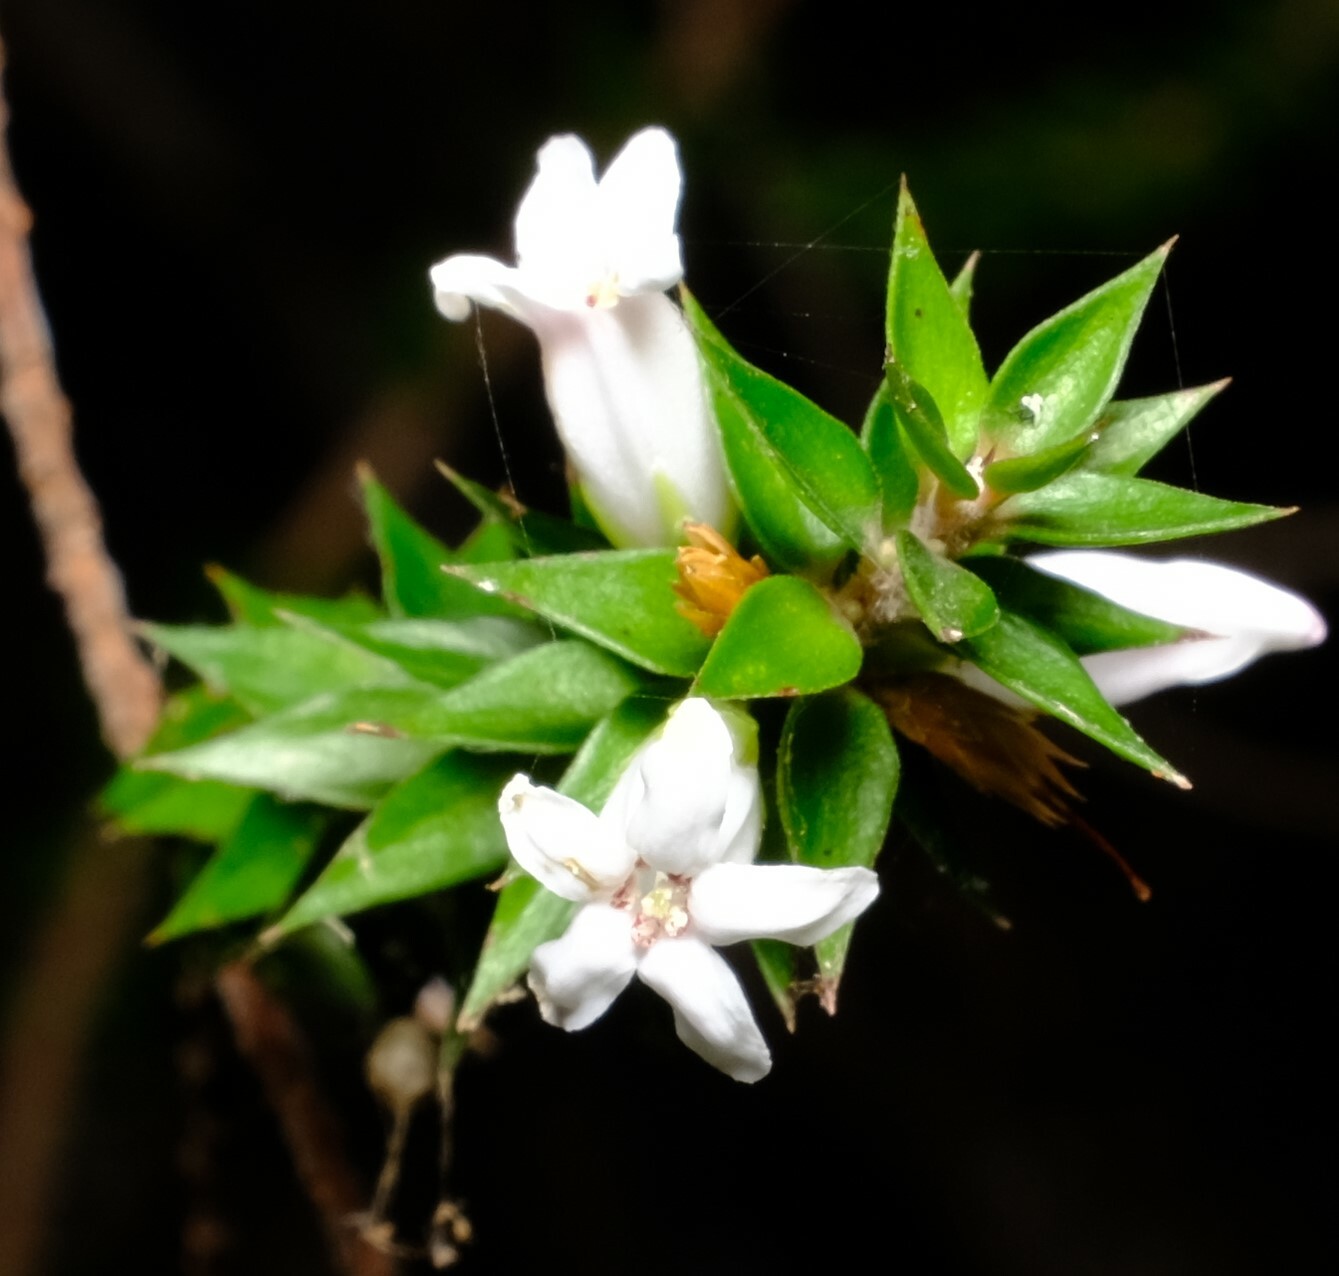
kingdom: Plantae
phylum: Tracheophyta
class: Magnoliopsida
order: Ericales
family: Ericaceae
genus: Epacris
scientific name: Epacris pulchella
